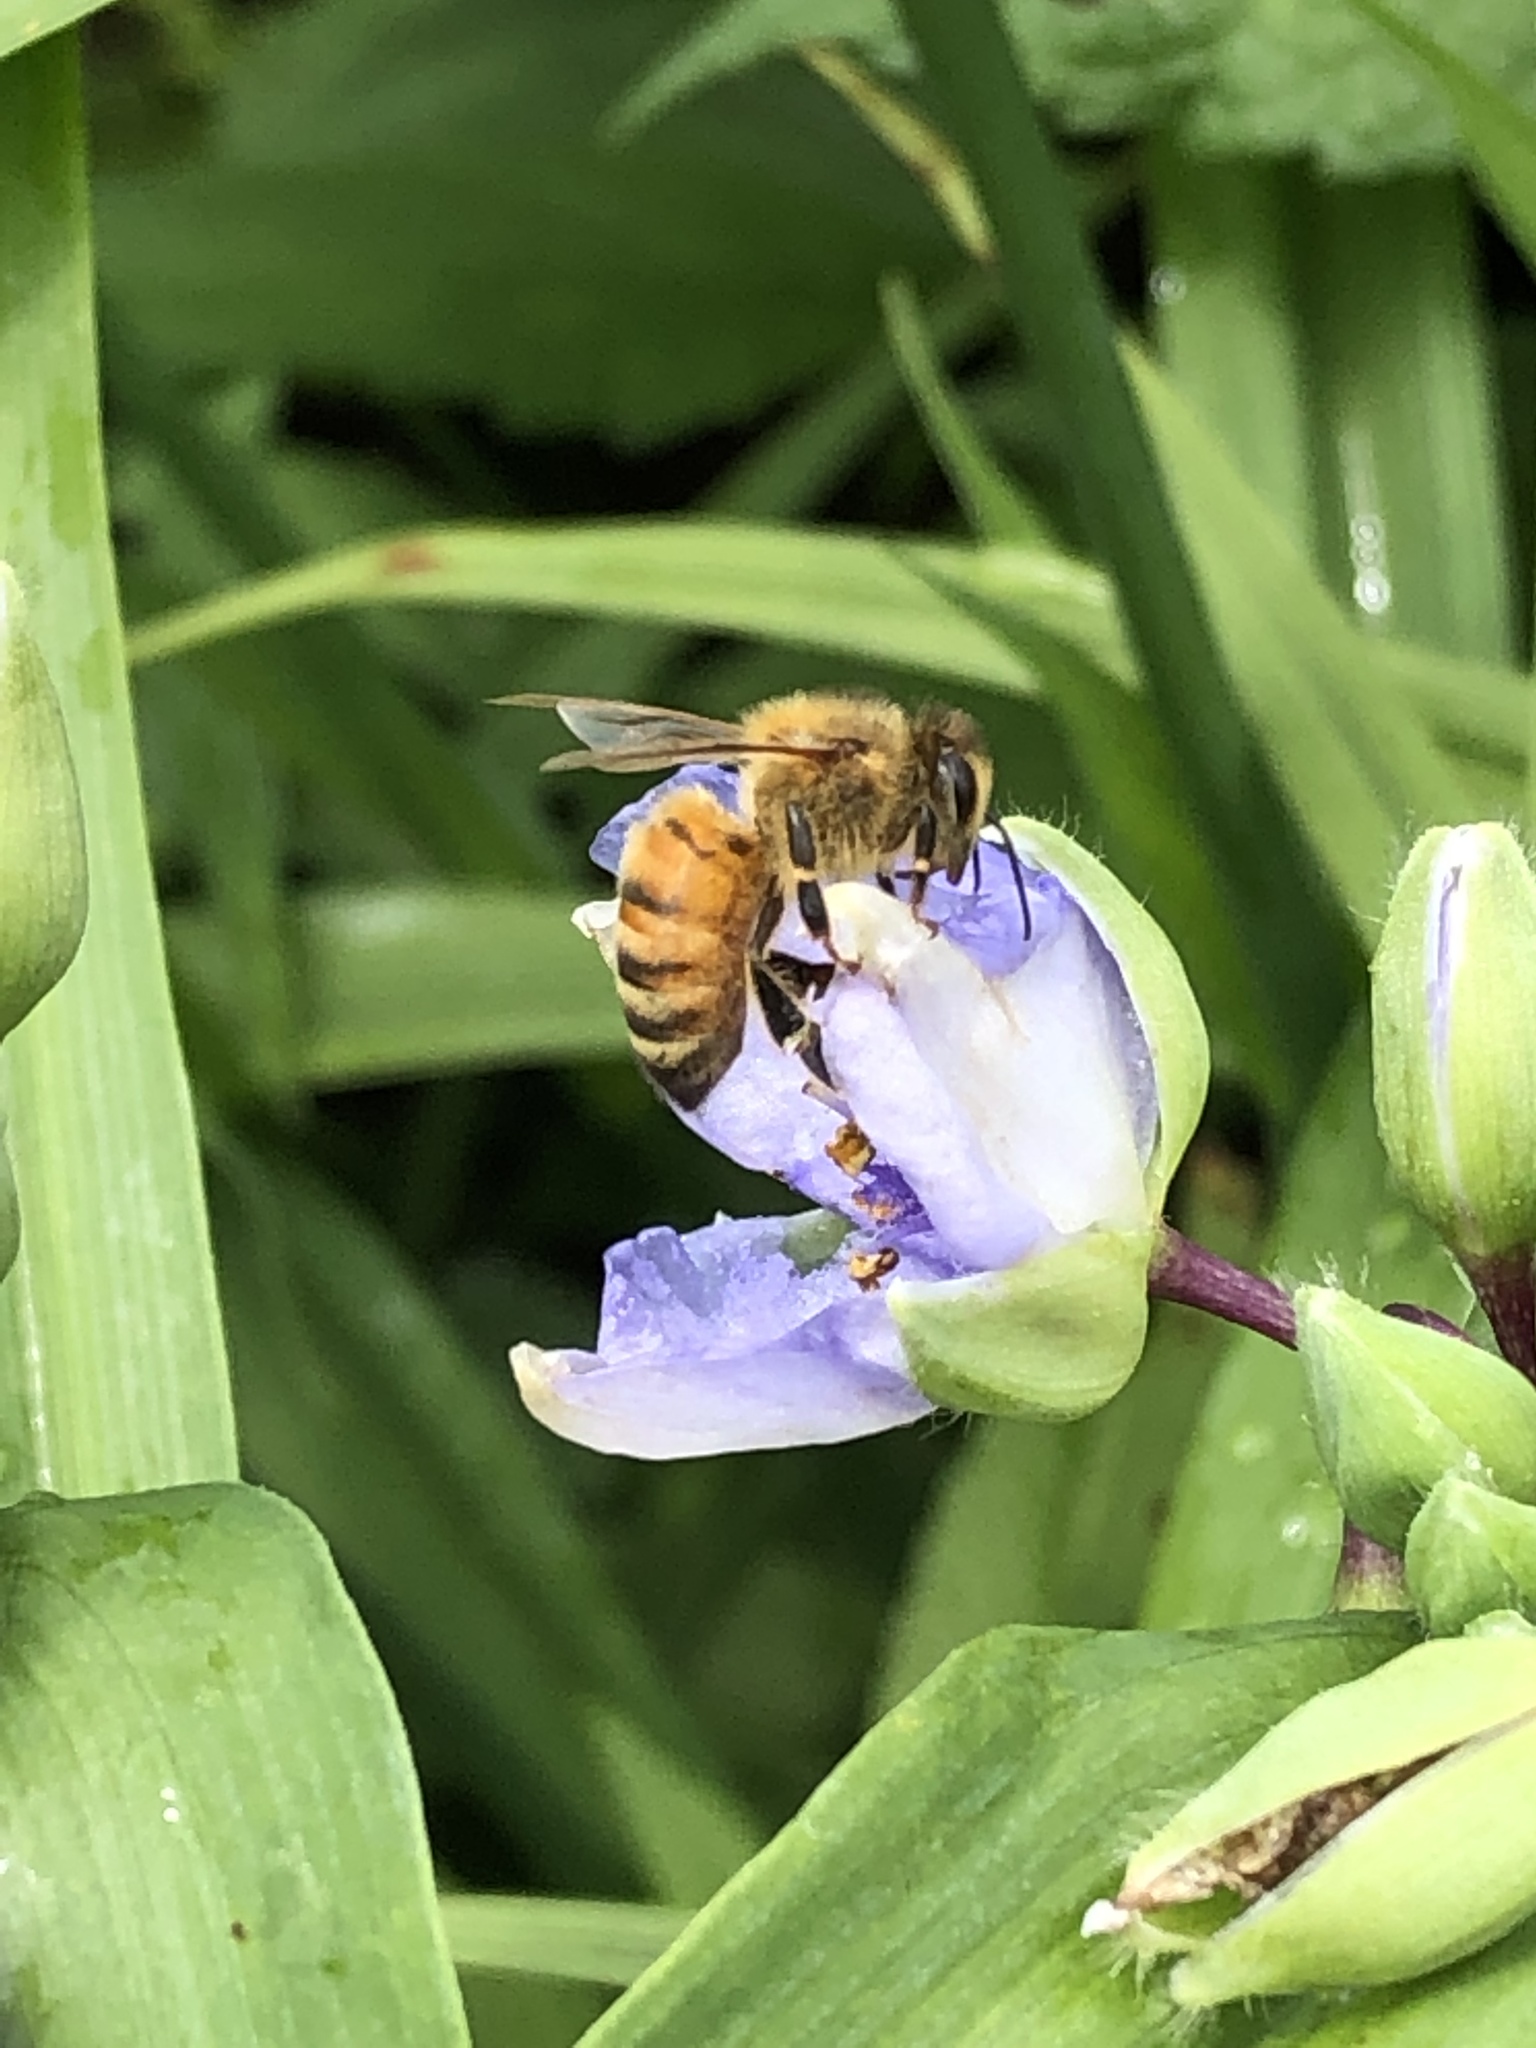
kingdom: Animalia
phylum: Arthropoda
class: Insecta
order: Hymenoptera
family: Apidae
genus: Apis
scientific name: Apis mellifera
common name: Honey bee
